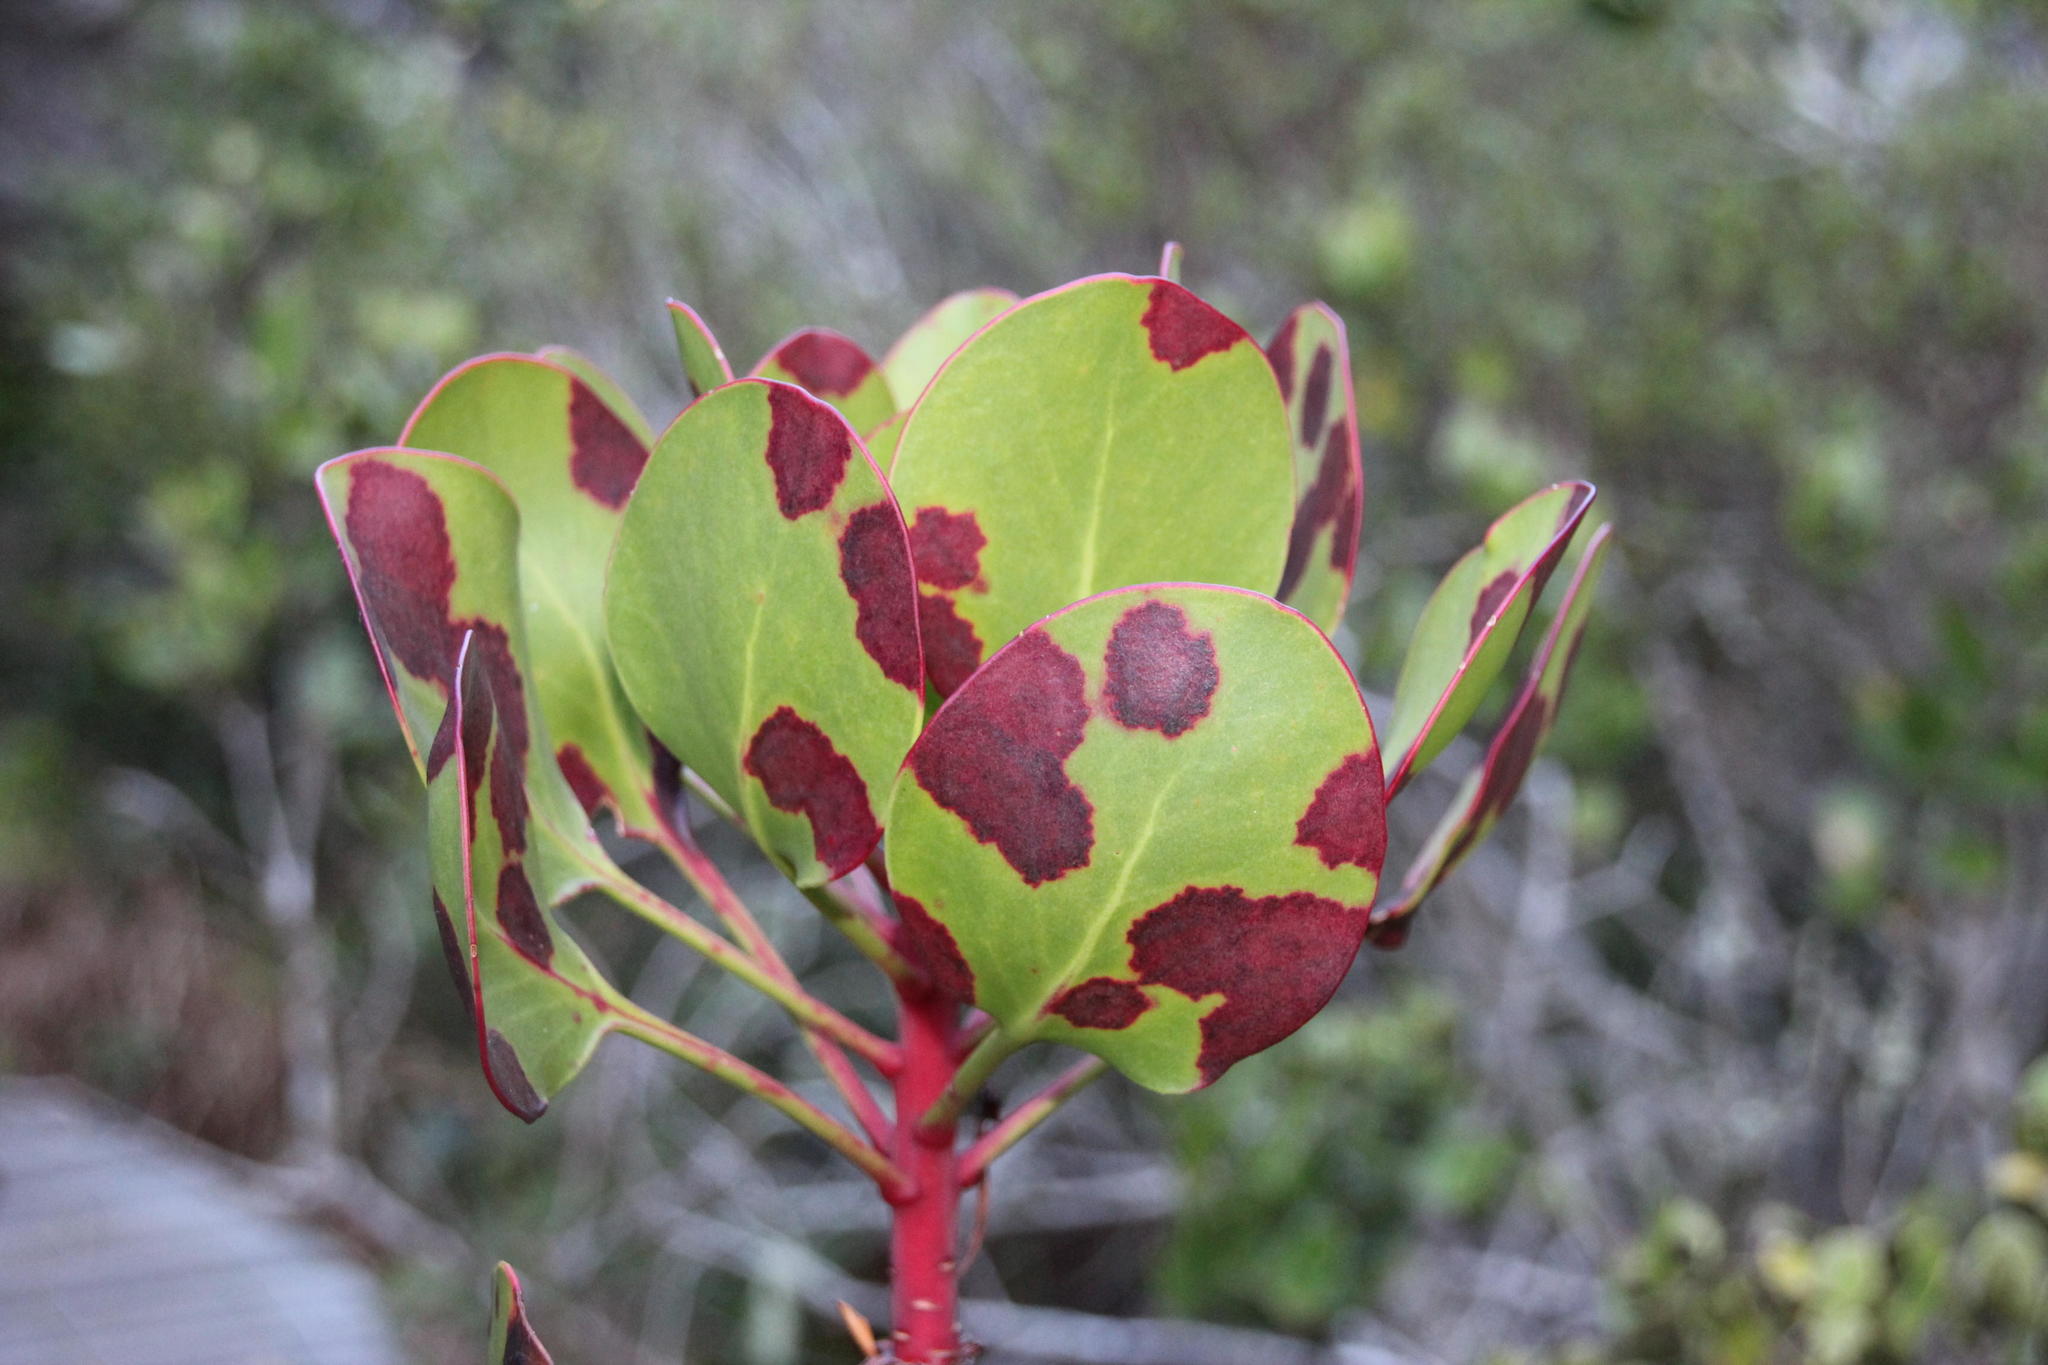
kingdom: Plantae
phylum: Tracheophyta
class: Magnoliopsida
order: Proteales
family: Proteaceae
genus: Protea
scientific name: Protea cynaroides
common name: King protea
